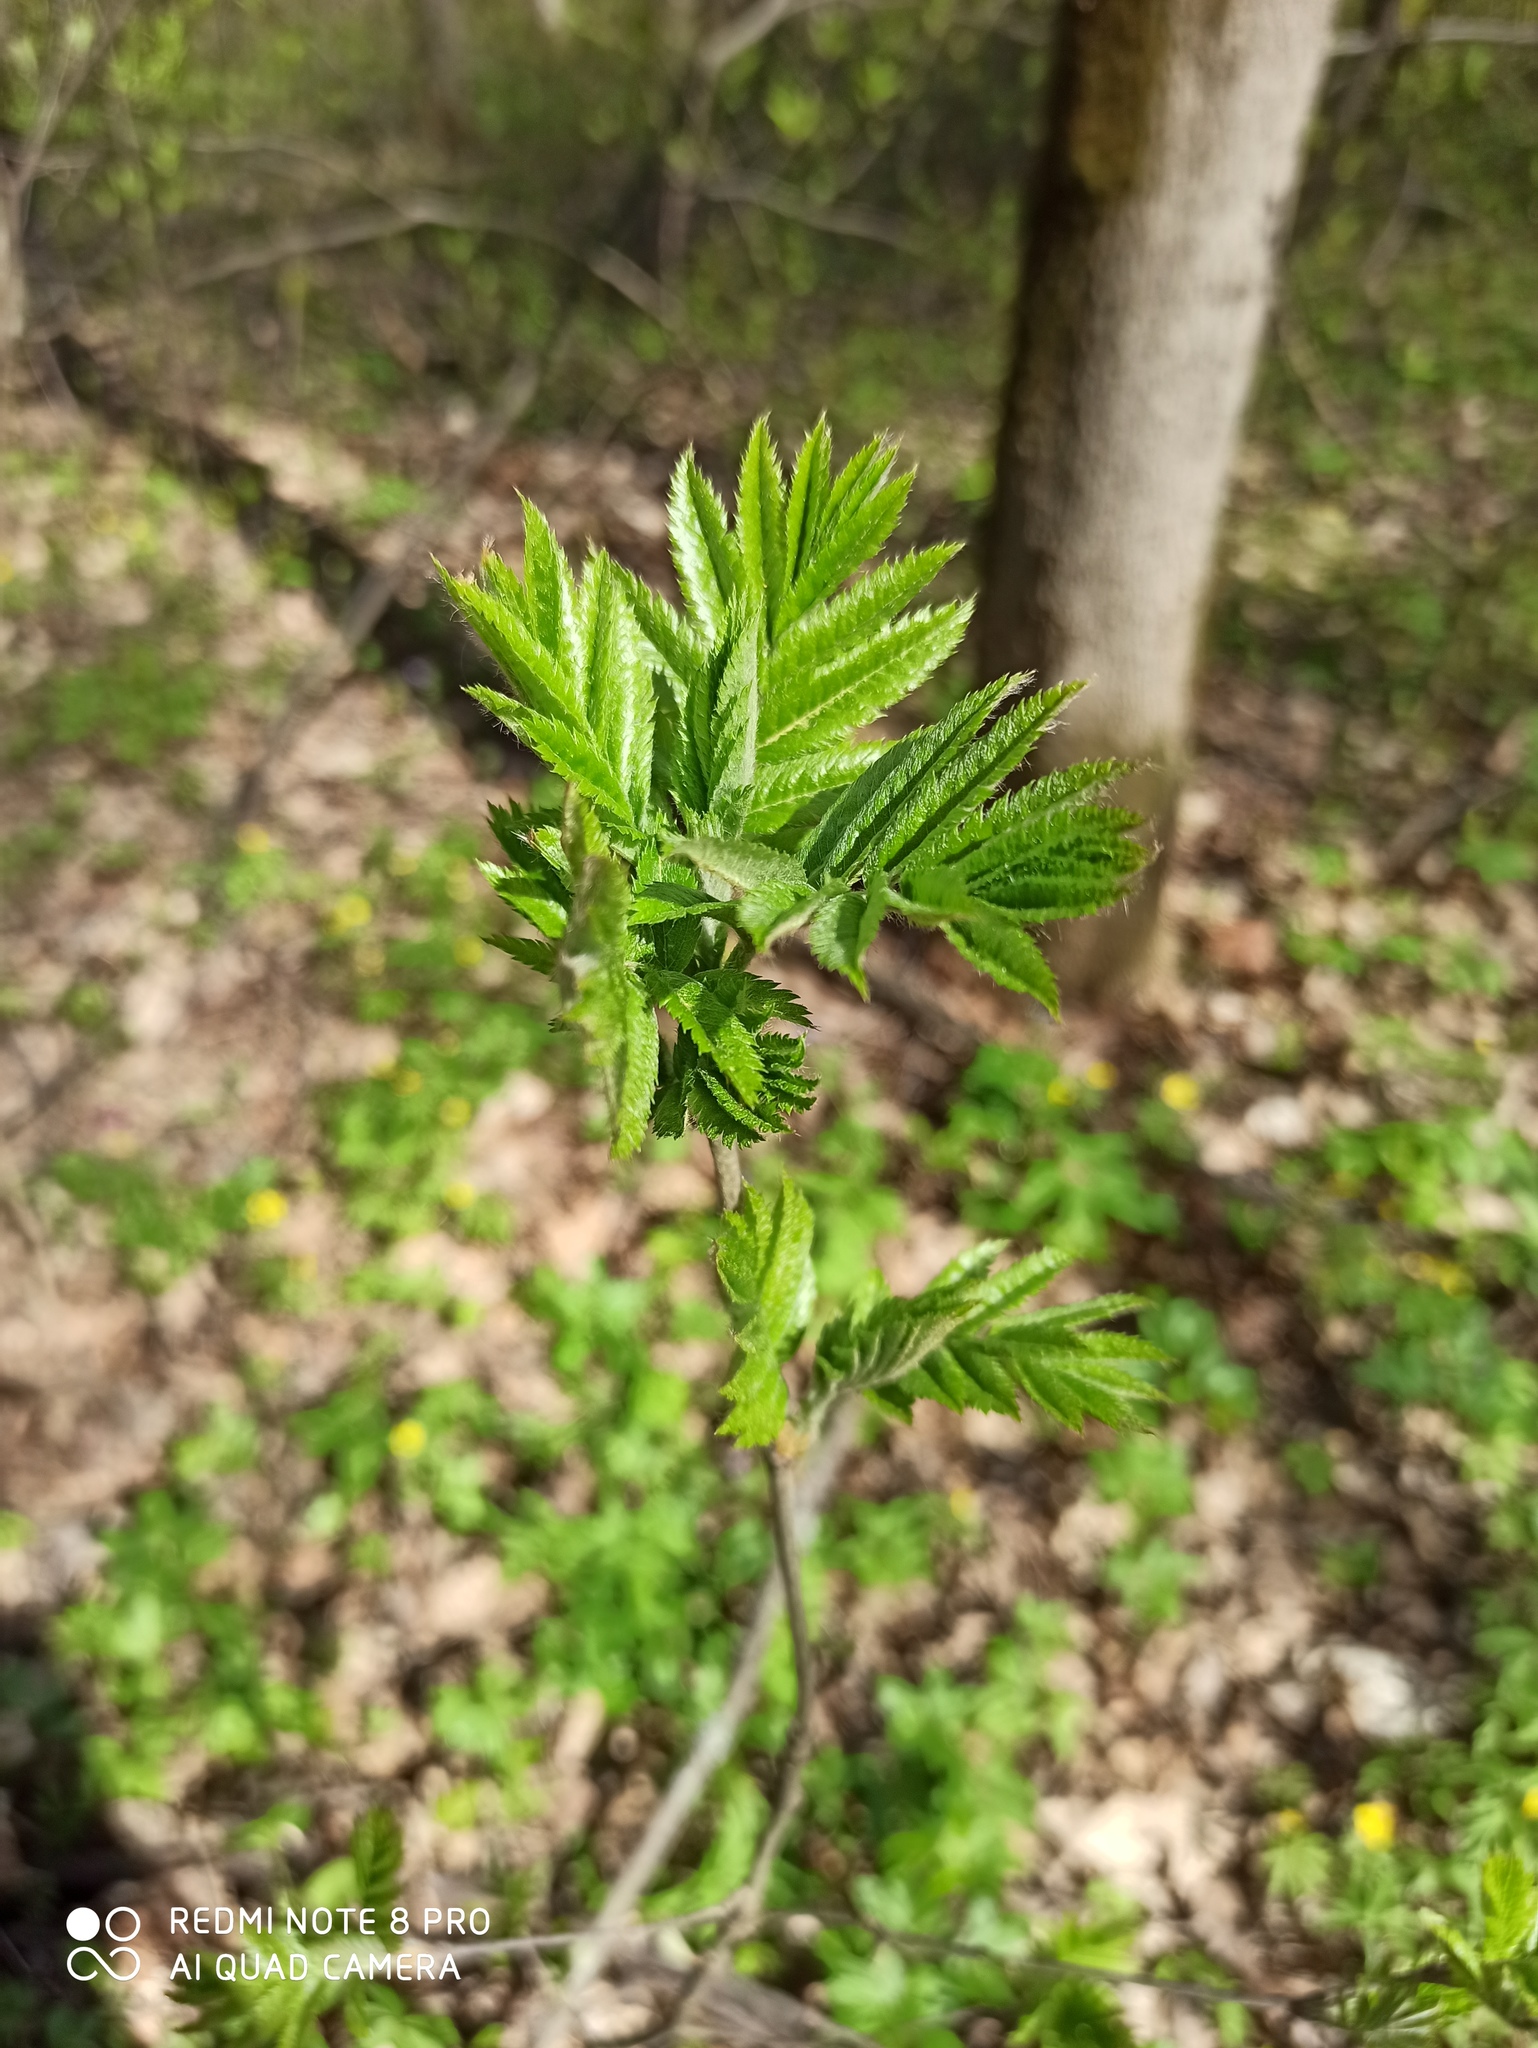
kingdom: Plantae
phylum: Tracheophyta
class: Magnoliopsida
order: Rosales
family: Rosaceae
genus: Sorbus
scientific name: Sorbus aucuparia
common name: Rowan
